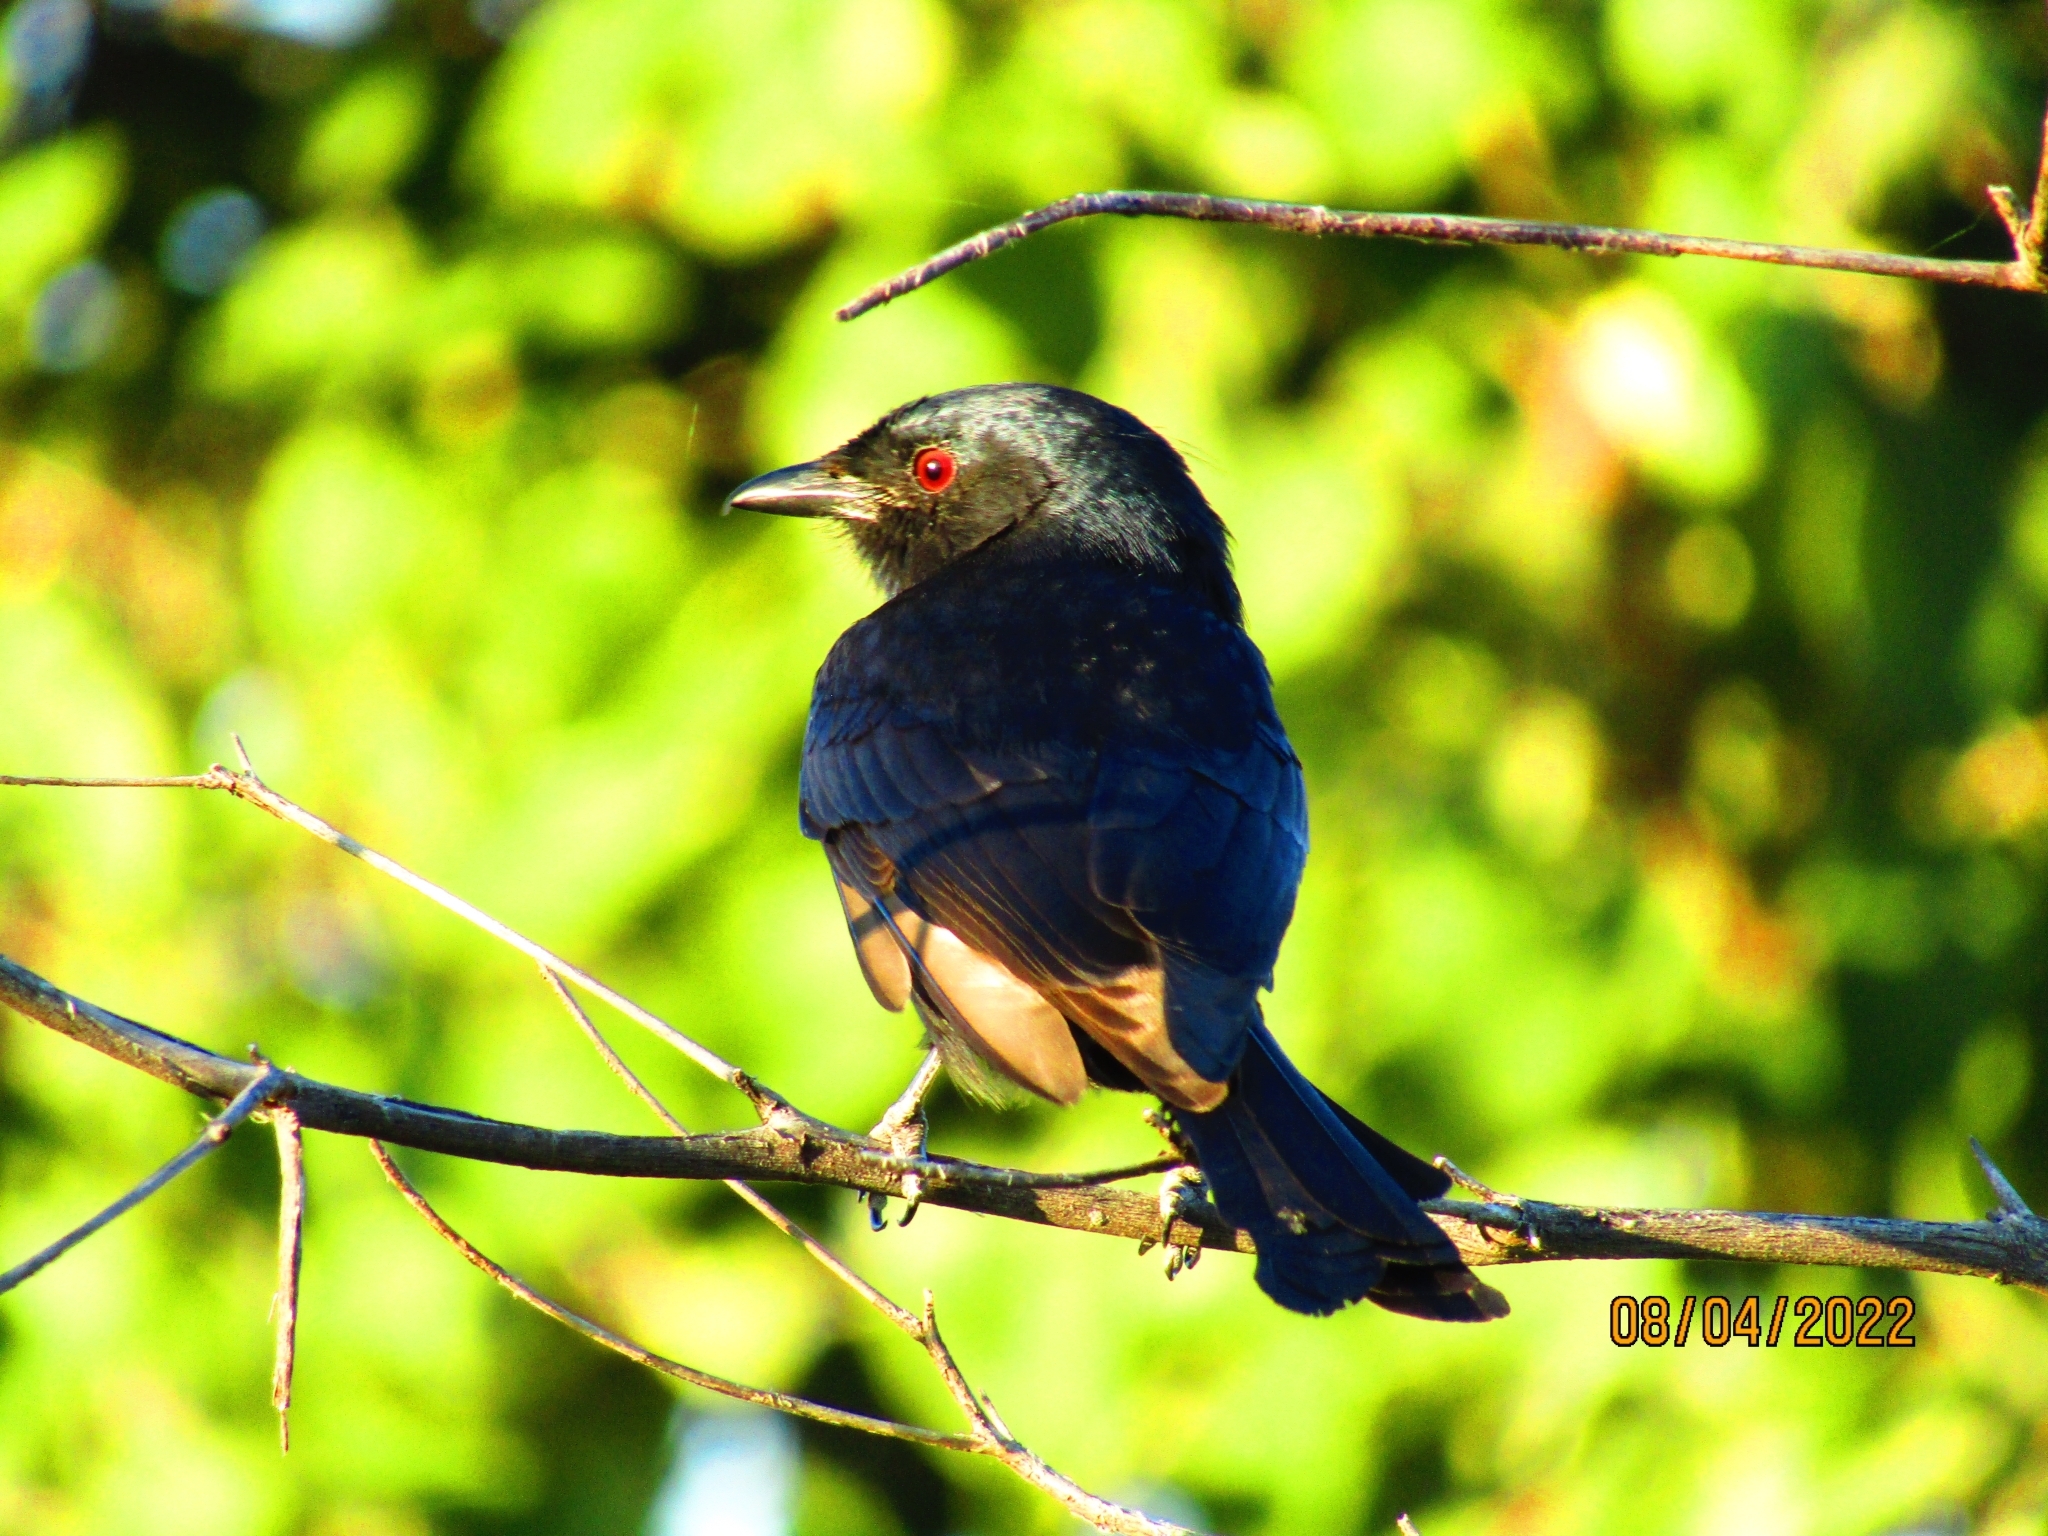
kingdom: Animalia
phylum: Chordata
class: Aves
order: Passeriformes
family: Dicruridae
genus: Dicrurus
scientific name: Dicrurus adsimilis
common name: Fork-tailed drongo
